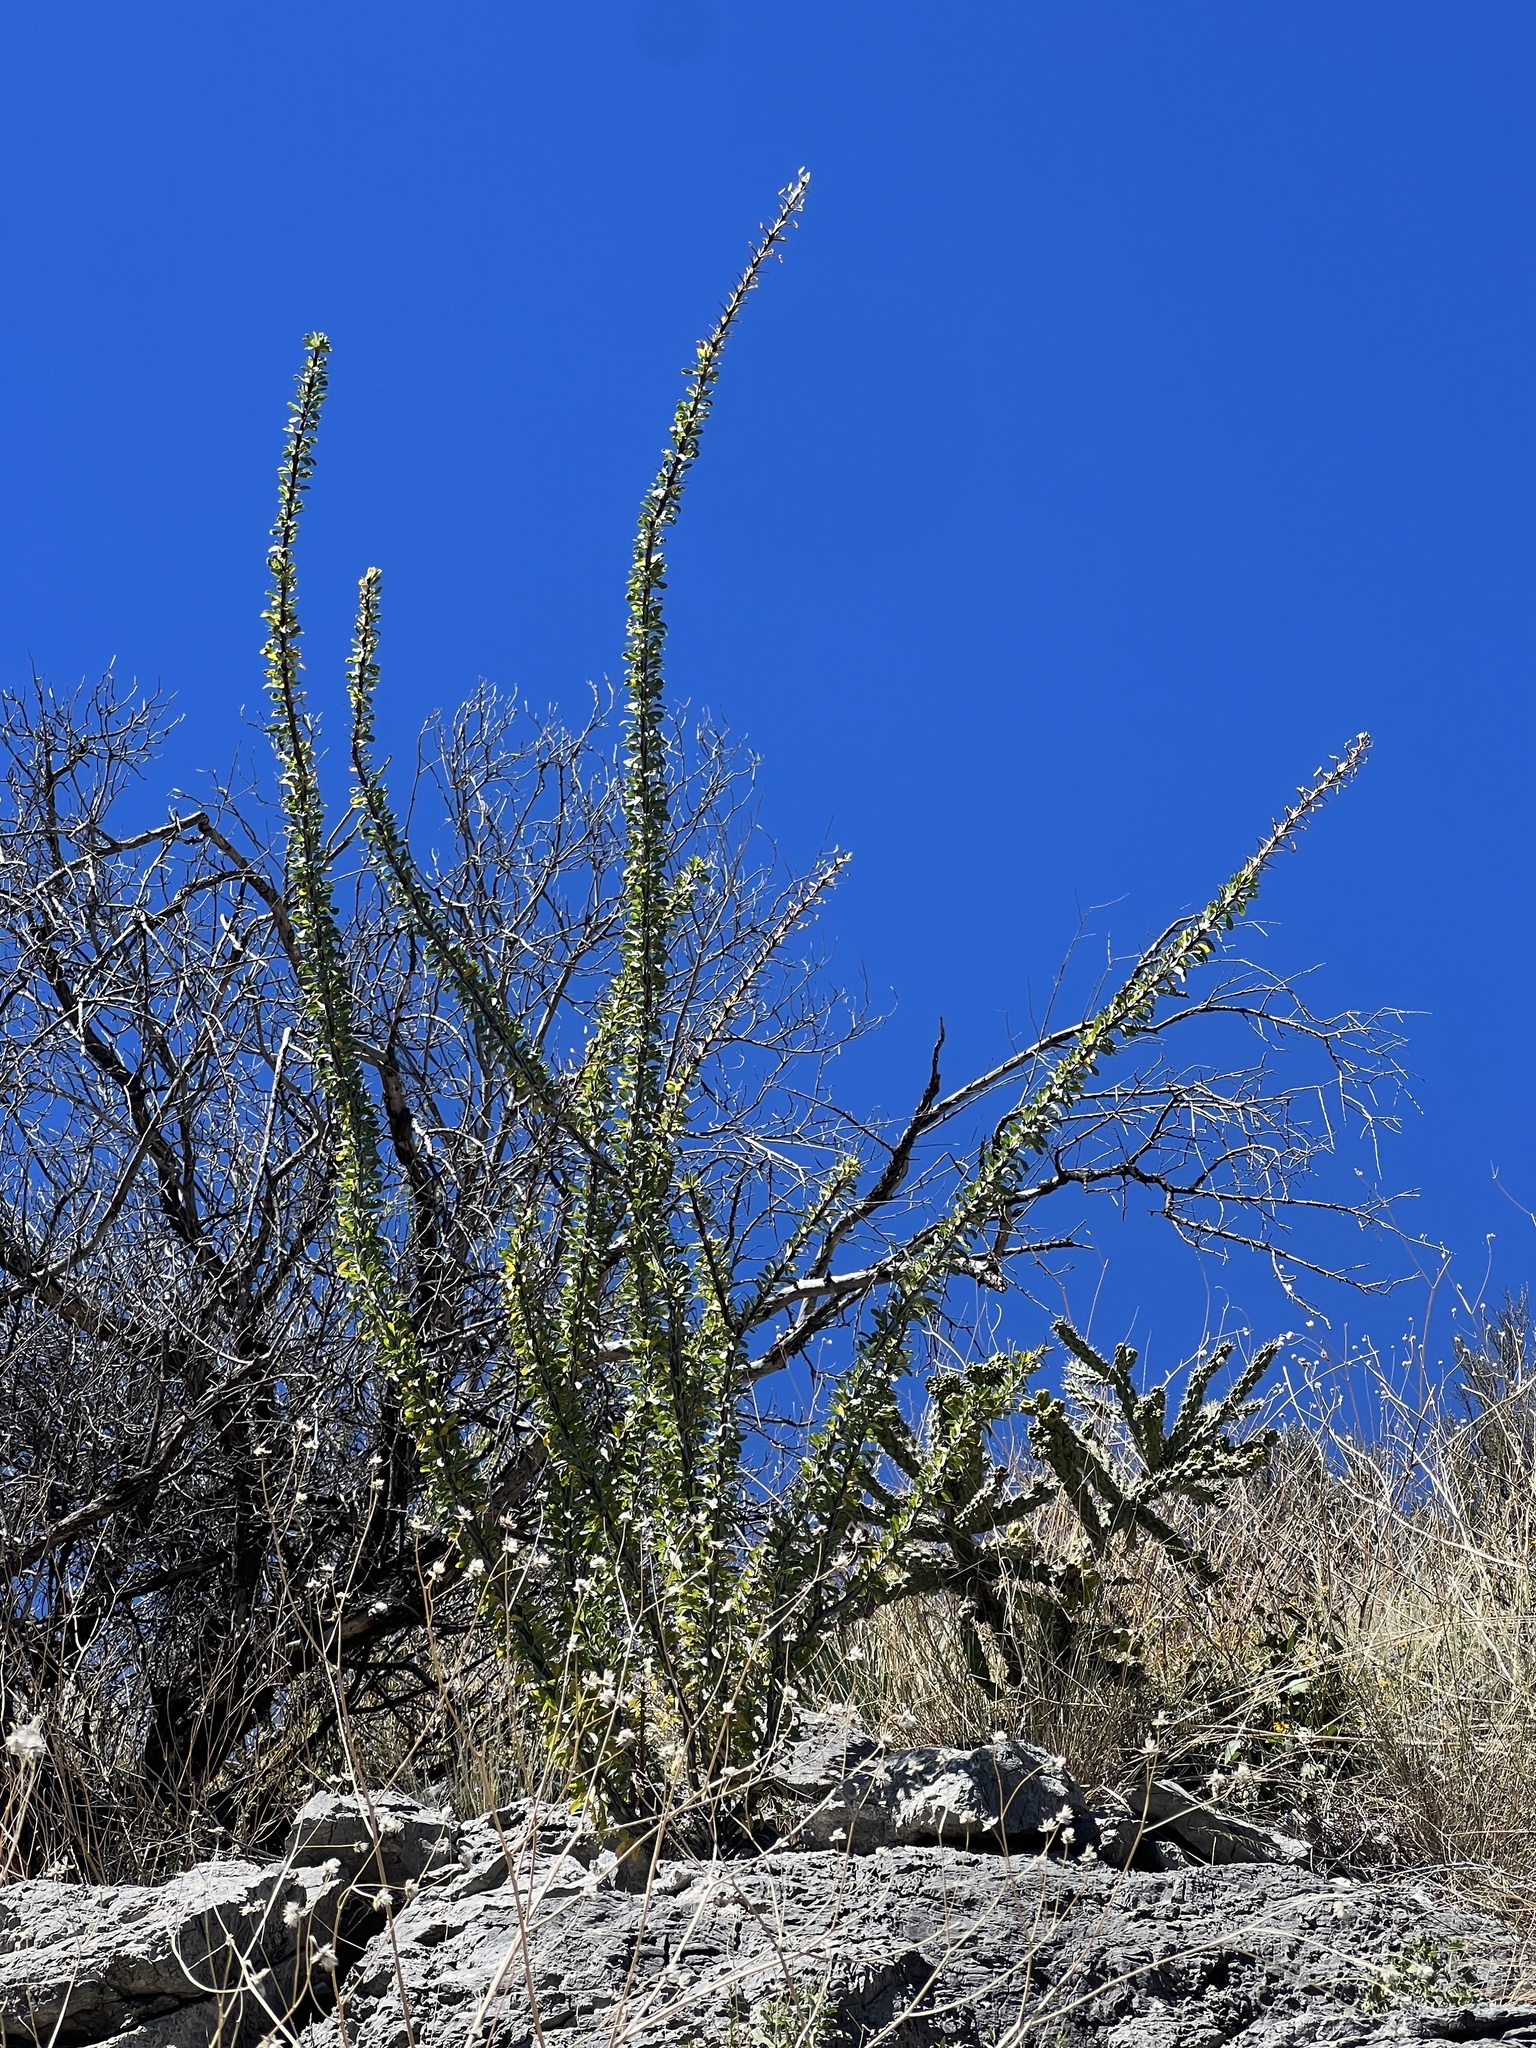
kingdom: Plantae
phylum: Tracheophyta
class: Magnoliopsida
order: Ericales
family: Fouquieriaceae
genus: Fouquieria
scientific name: Fouquieria splendens
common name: Vine-cactus
